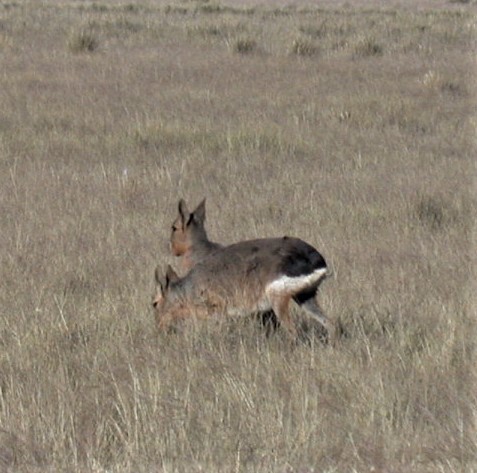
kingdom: Animalia
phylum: Chordata
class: Mammalia
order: Rodentia
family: Caviidae
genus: Dolichotis
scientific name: Dolichotis patagonum
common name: Patagonian mara
